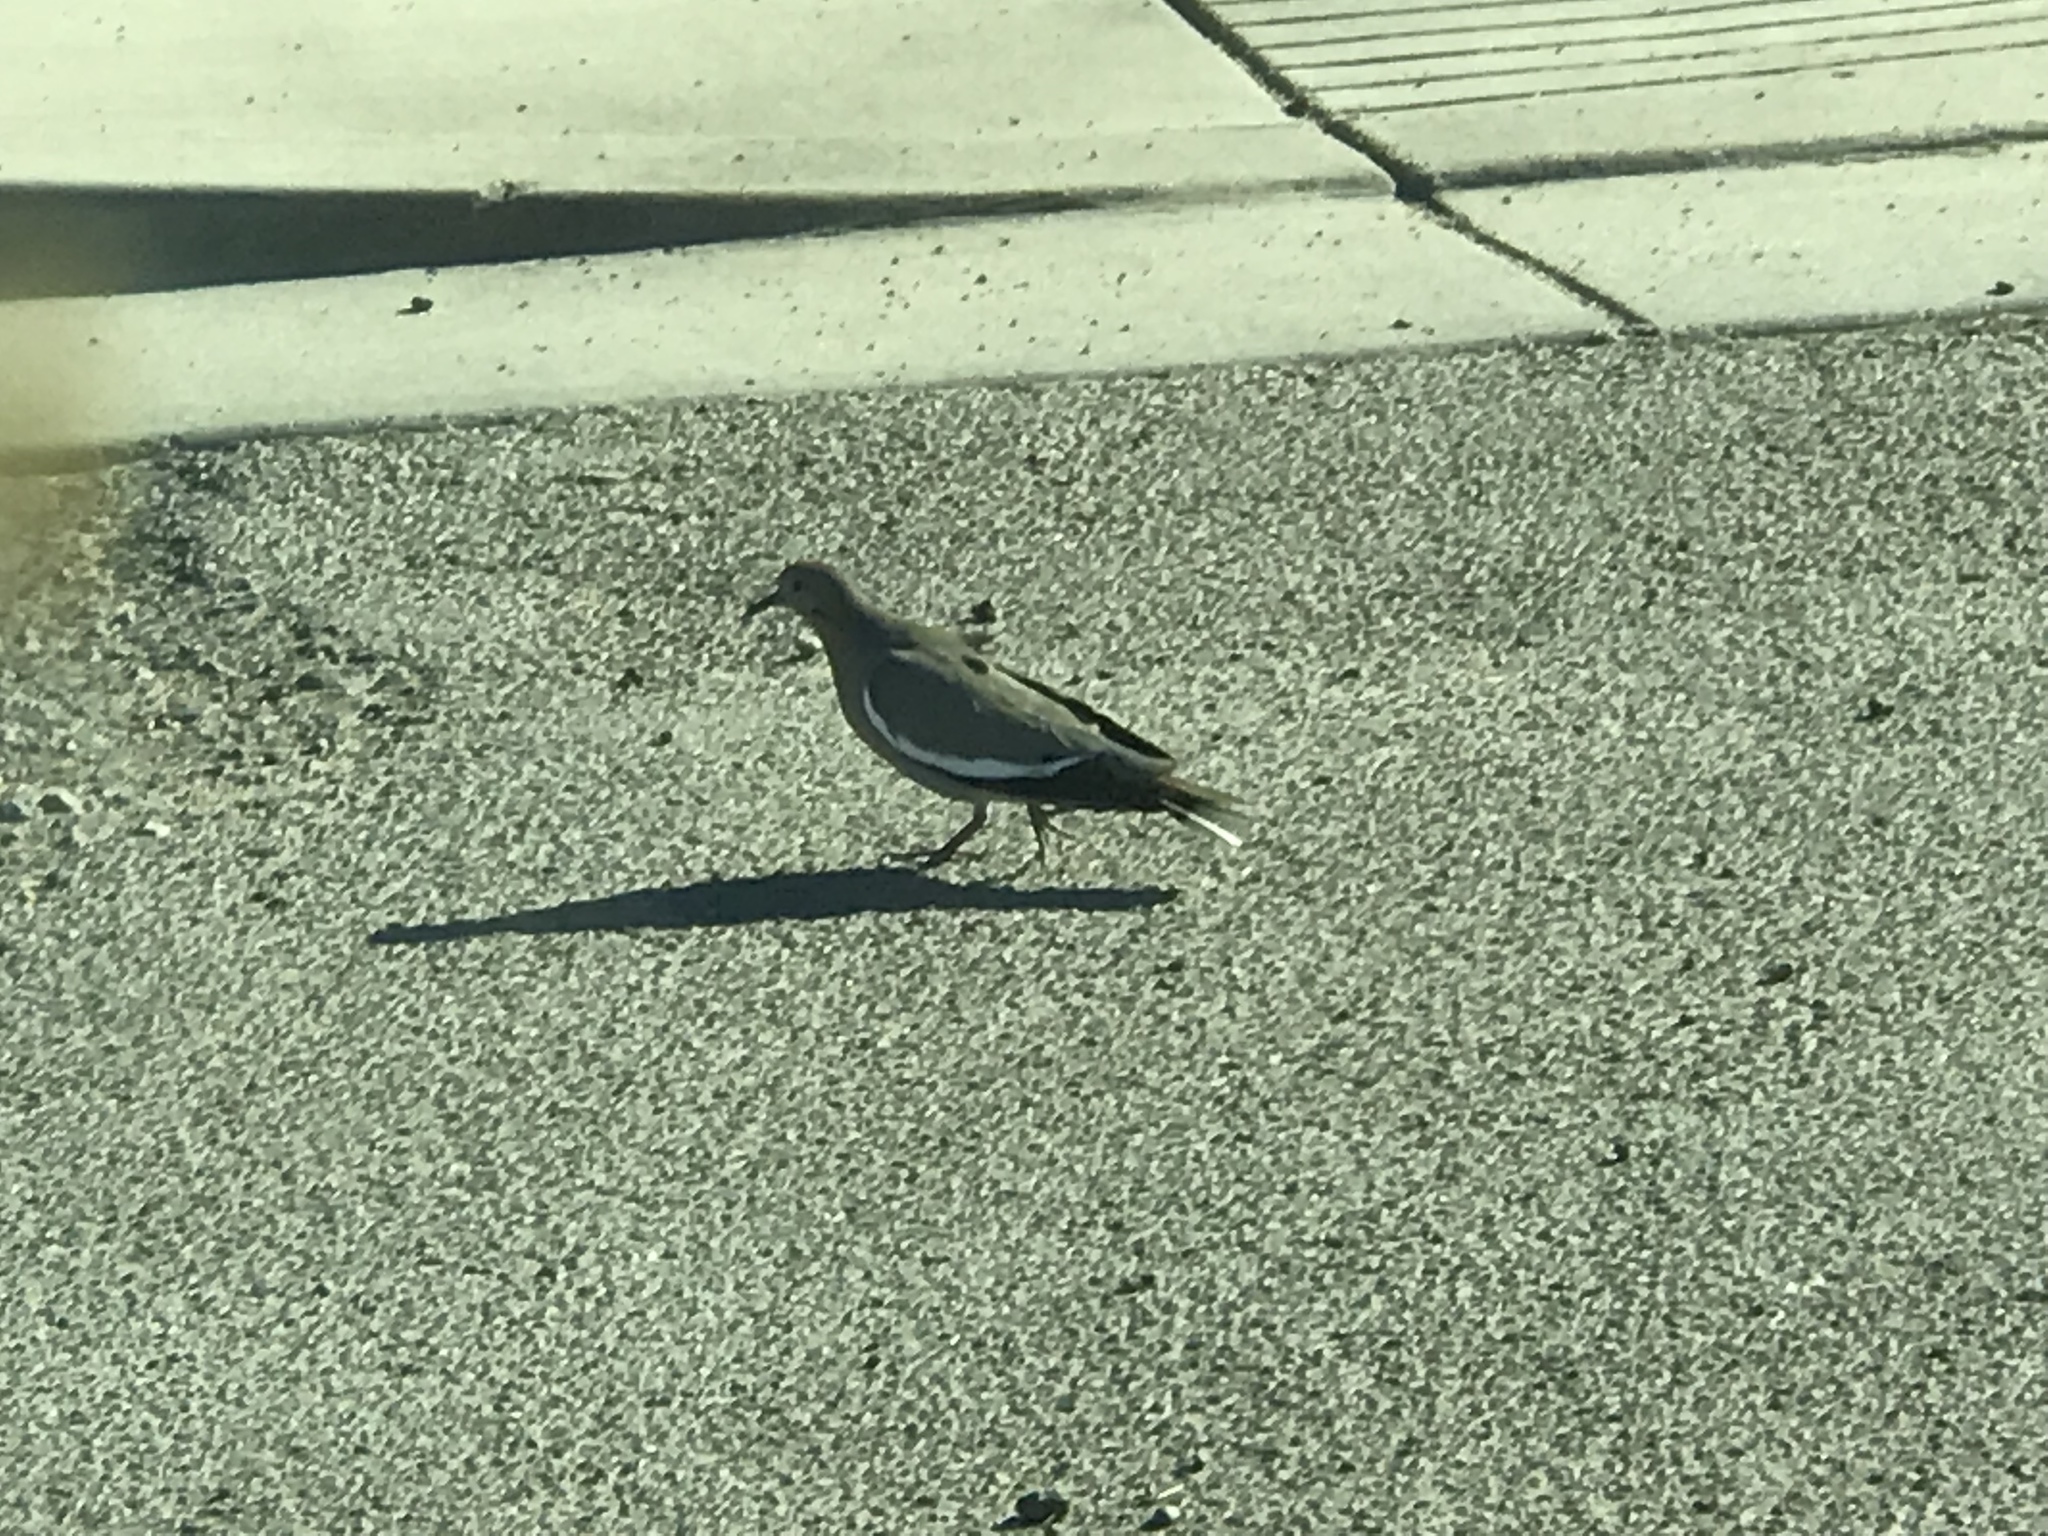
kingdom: Animalia
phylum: Chordata
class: Aves
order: Columbiformes
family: Columbidae
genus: Zenaida
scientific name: Zenaida asiatica
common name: White-winged dove
